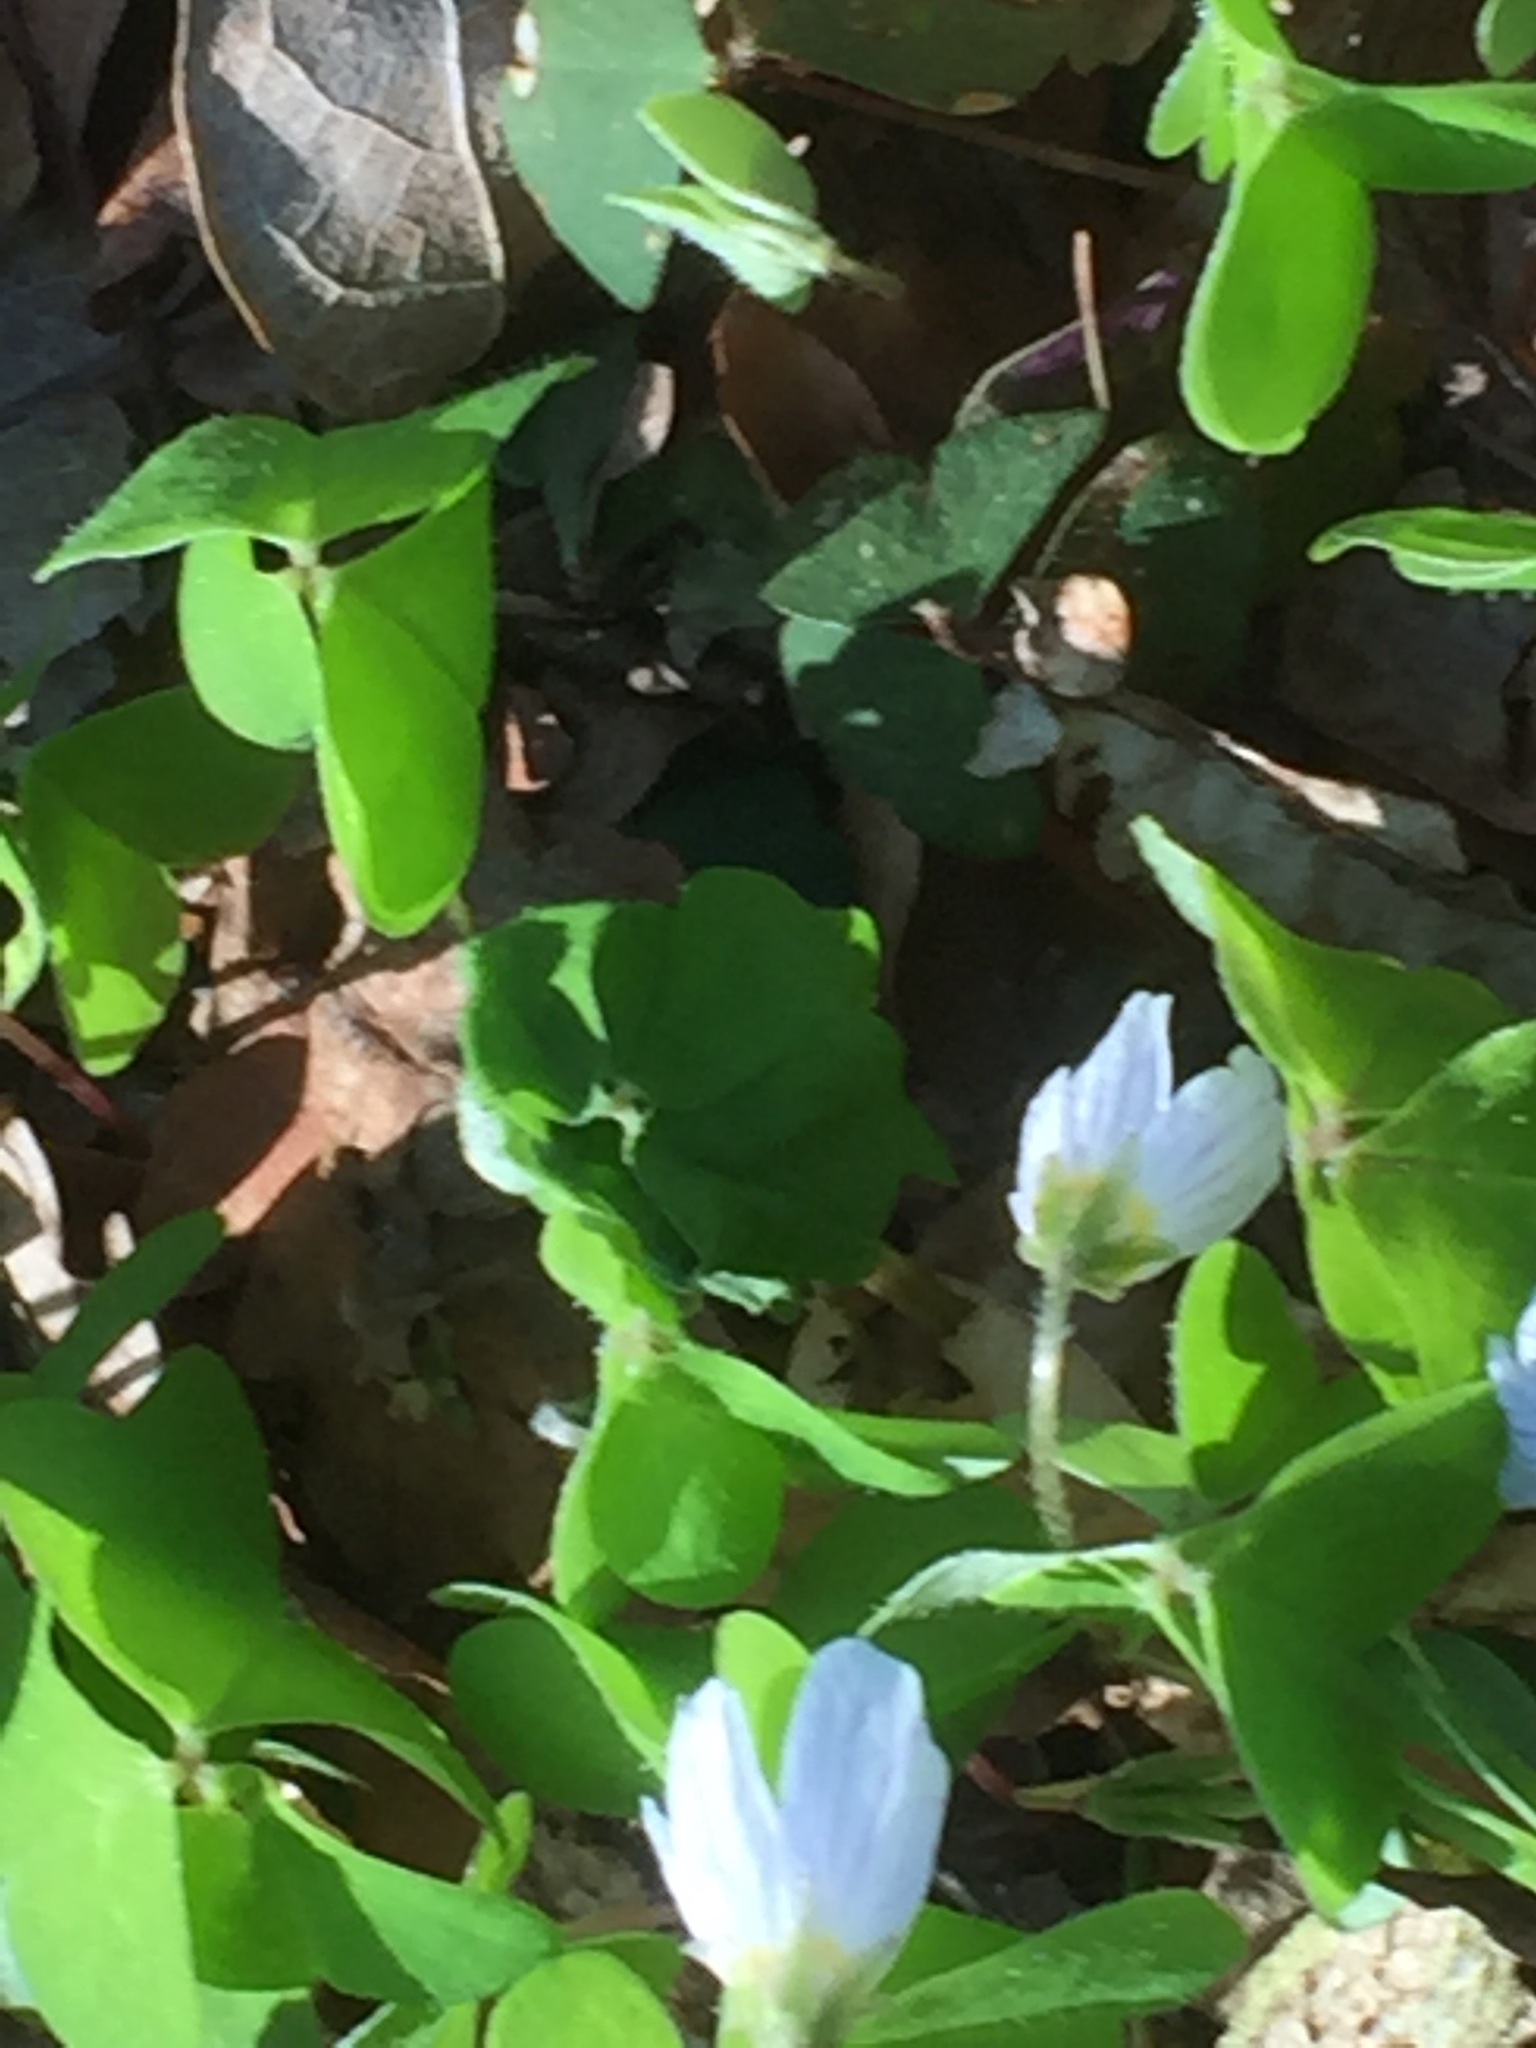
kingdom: Plantae
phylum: Tracheophyta
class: Magnoliopsida
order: Oxalidales
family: Oxalidaceae
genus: Oxalis
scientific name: Oxalis acetosella
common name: Wood-sorrel
